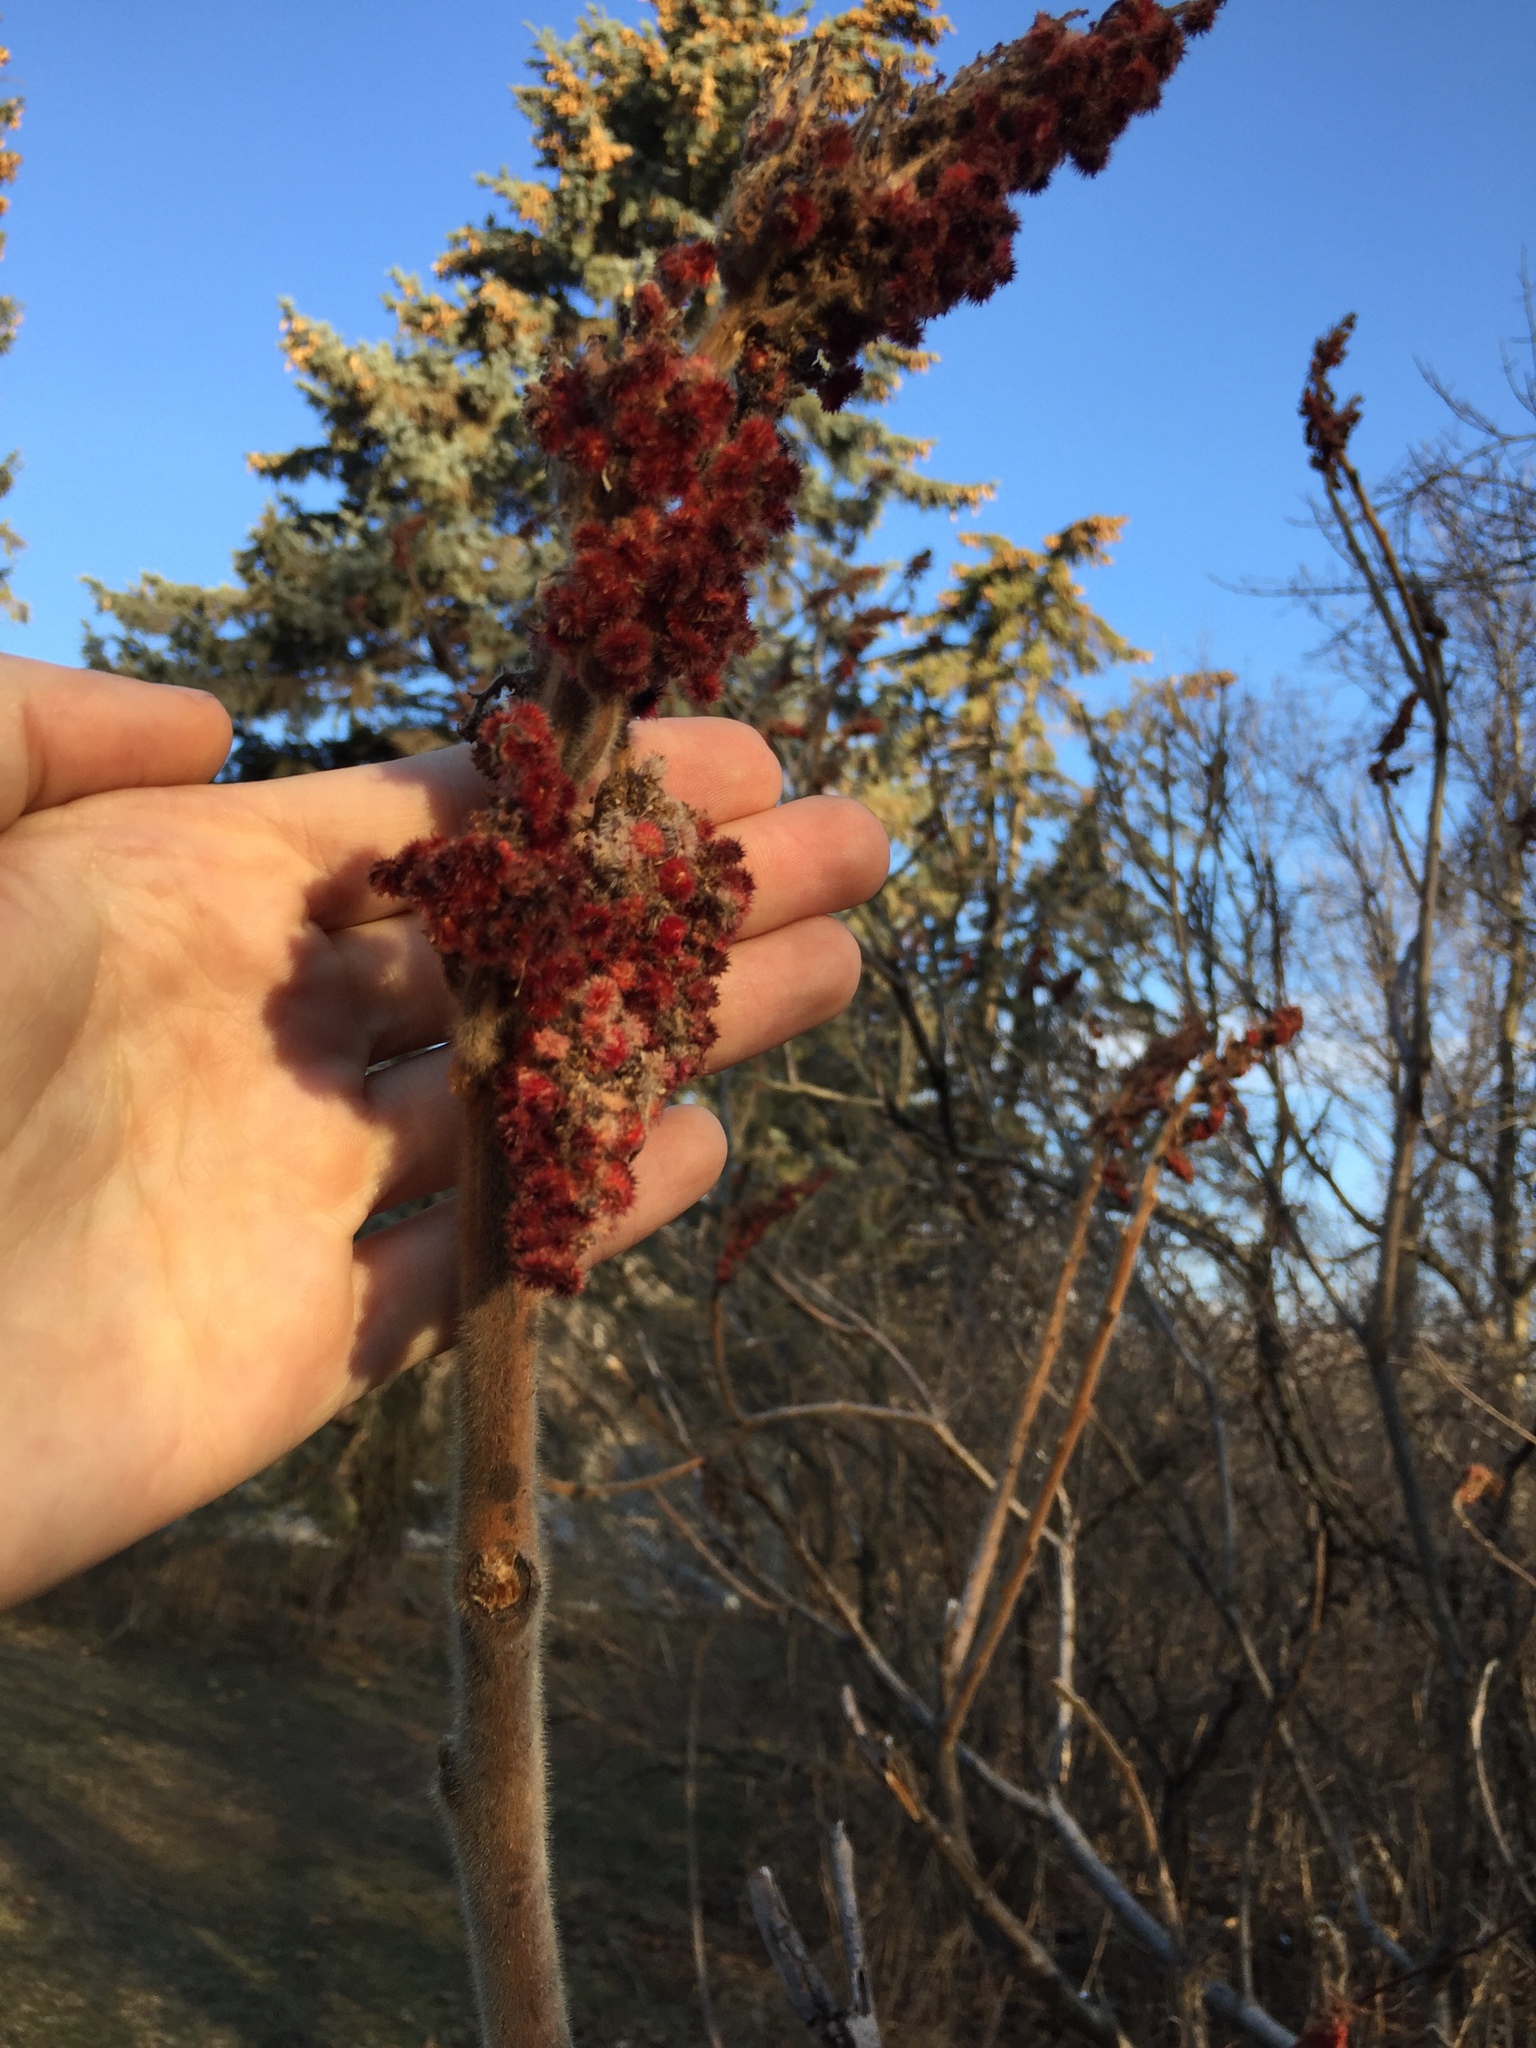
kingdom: Plantae
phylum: Tracheophyta
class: Magnoliopsida
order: Sapindales
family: Anacardiaceae
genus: Rhus
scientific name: Rhus typhina
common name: Staghorn sumac
